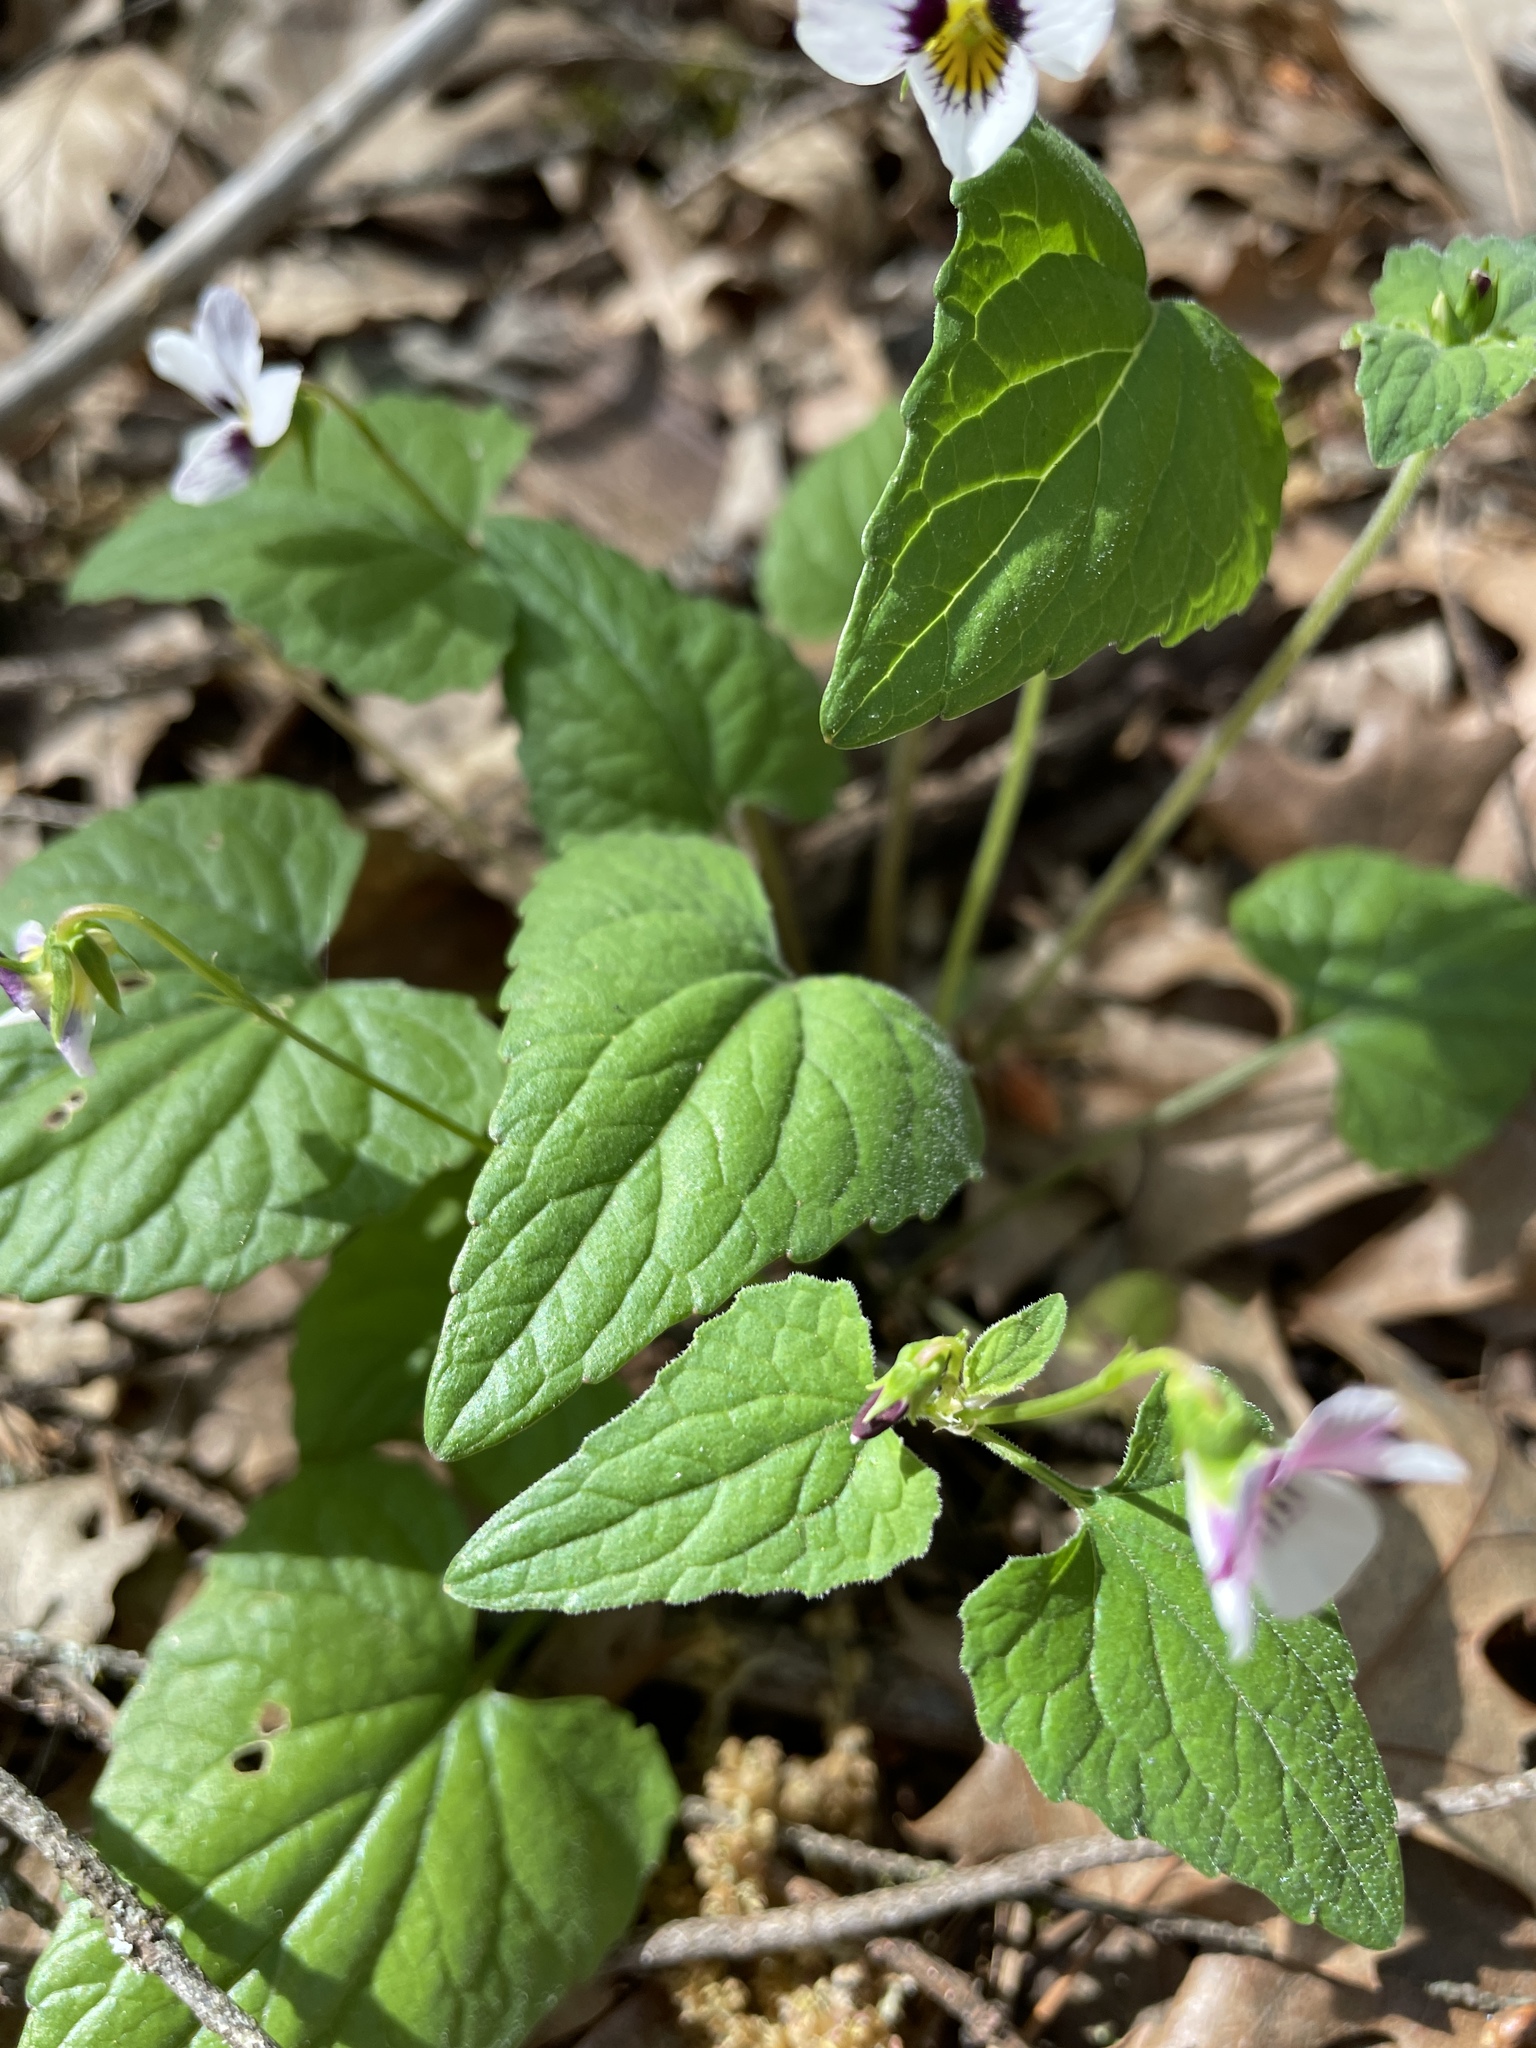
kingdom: Plantae
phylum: Tracheophyta
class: Magnoliopsida
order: Malpighiales
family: Violaceae
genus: Viola
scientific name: Viola ocellata
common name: Western heart's ease
